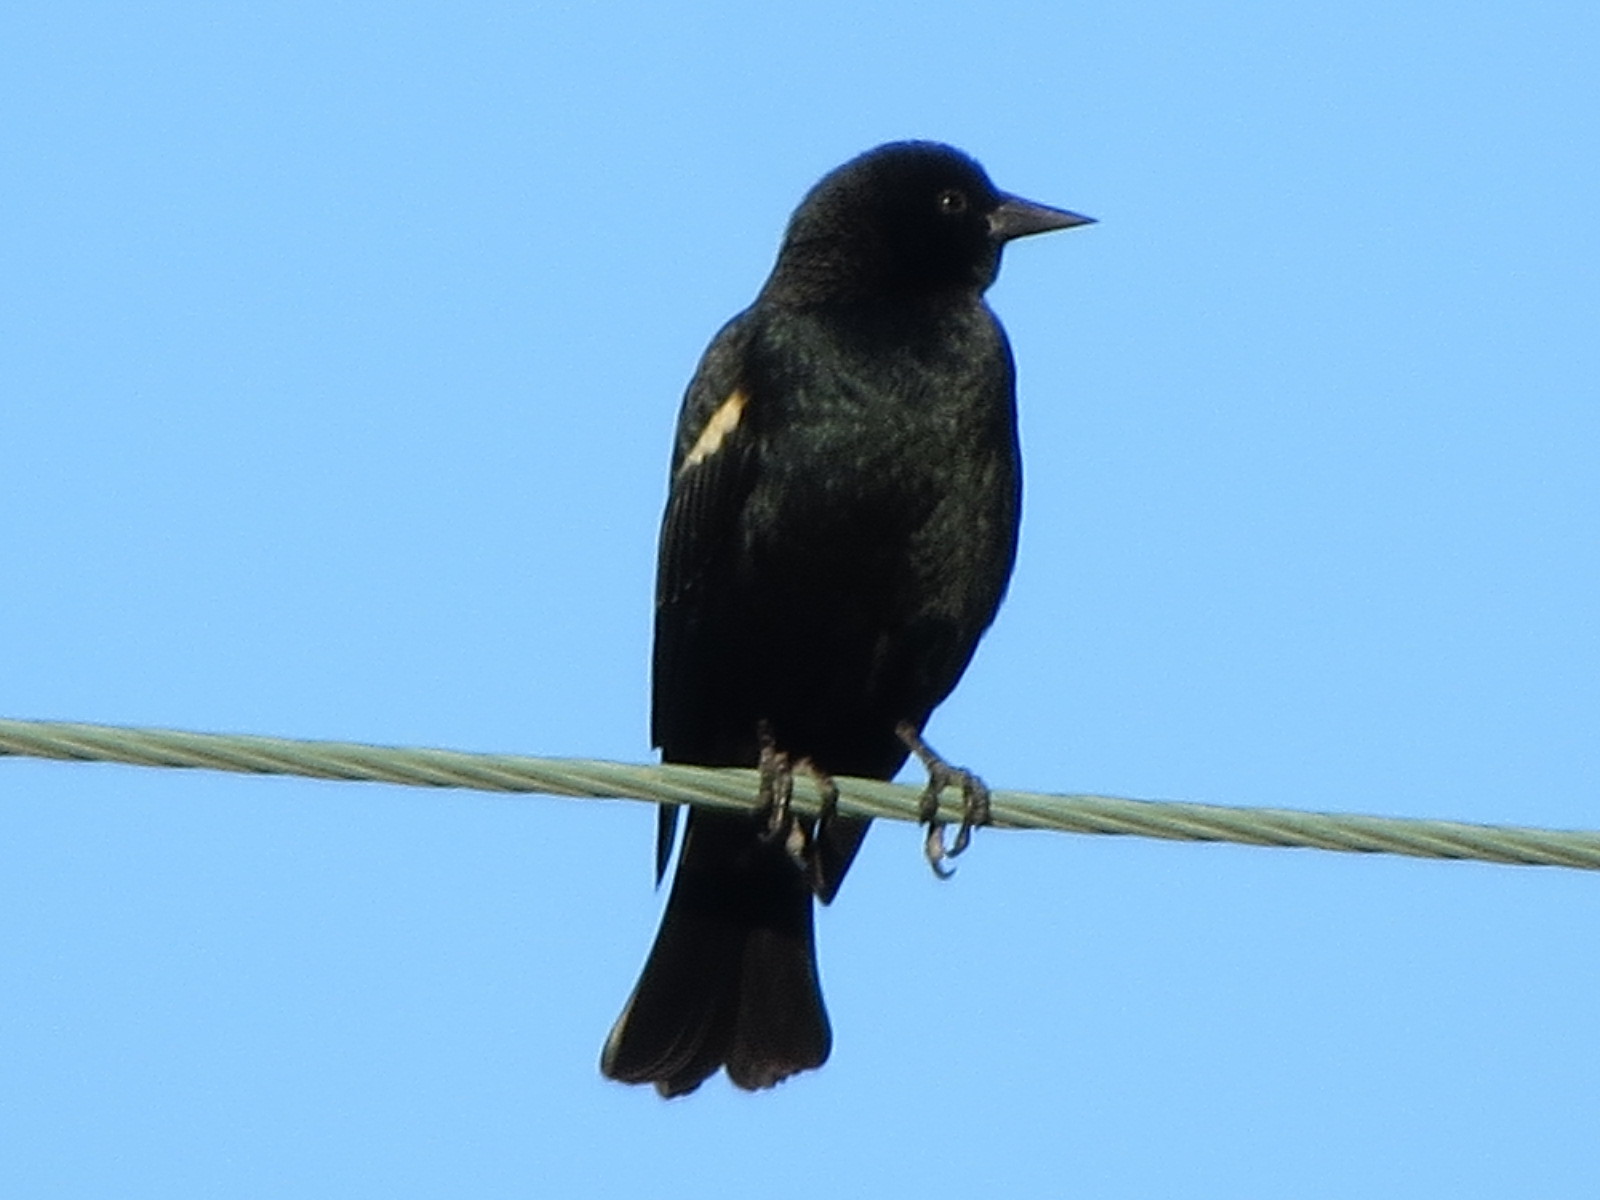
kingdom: Animalia
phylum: Chordata
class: Aves
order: Passeriformes
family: Icteridae
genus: Agelaius
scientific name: Agelaius tricolor
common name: Tricolored blackbird
